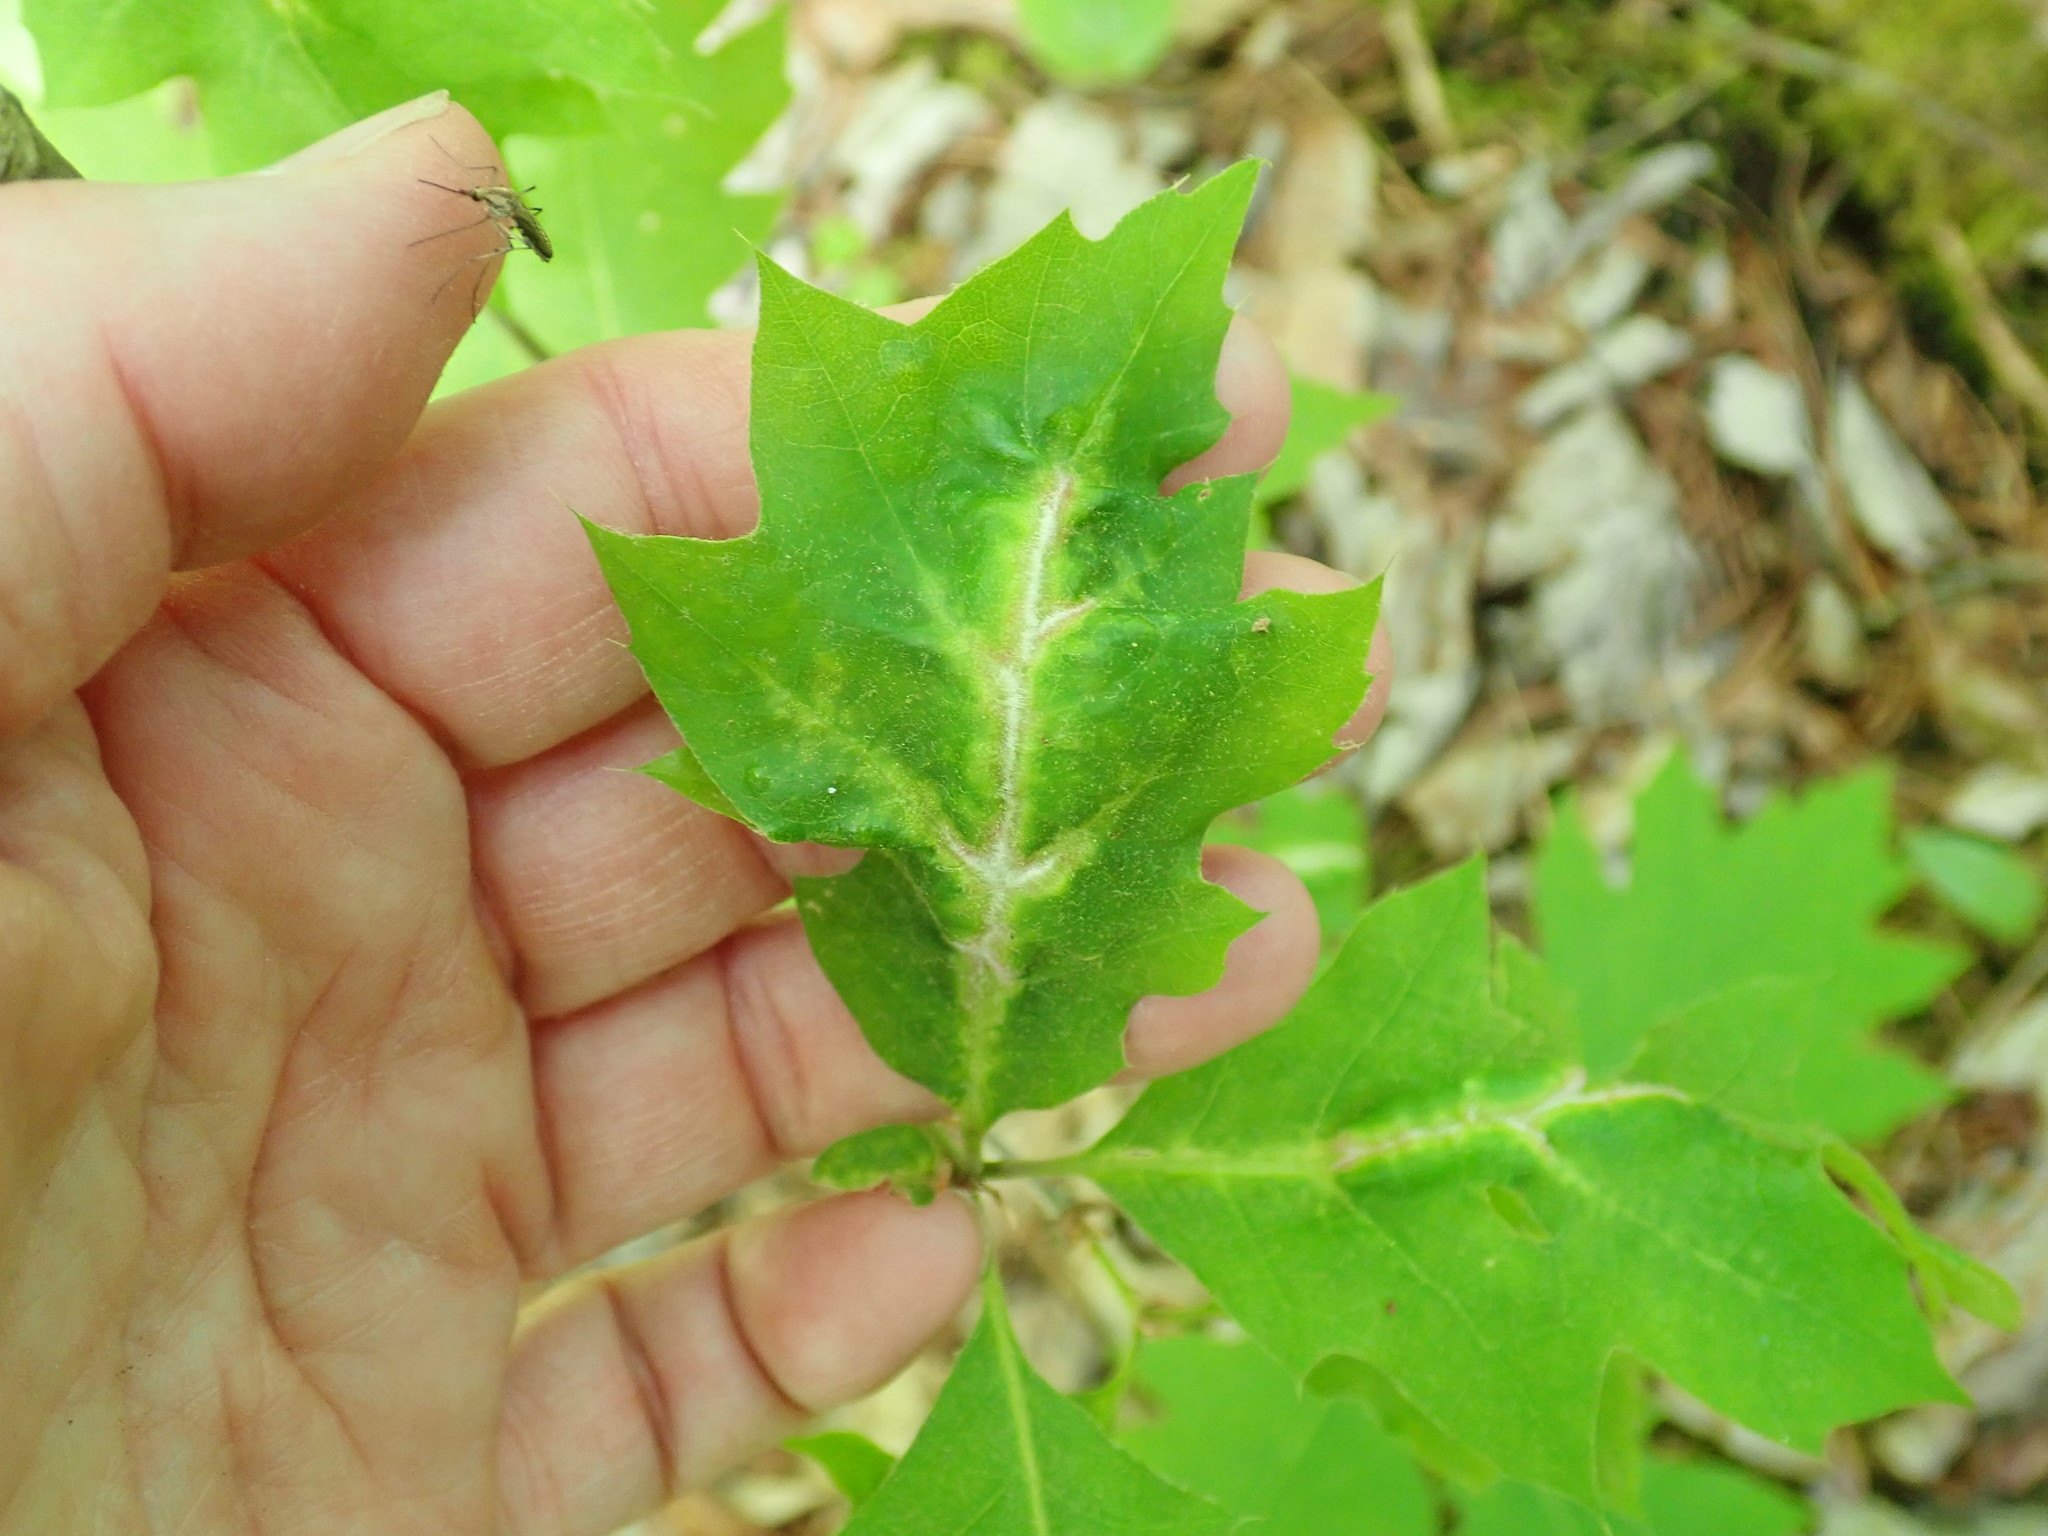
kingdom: Animalia
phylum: Arthropoda
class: Insecta
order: Diptera
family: Cecidomyiidae
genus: Macrodiplosis
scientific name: Macrodiplosis niveipila
